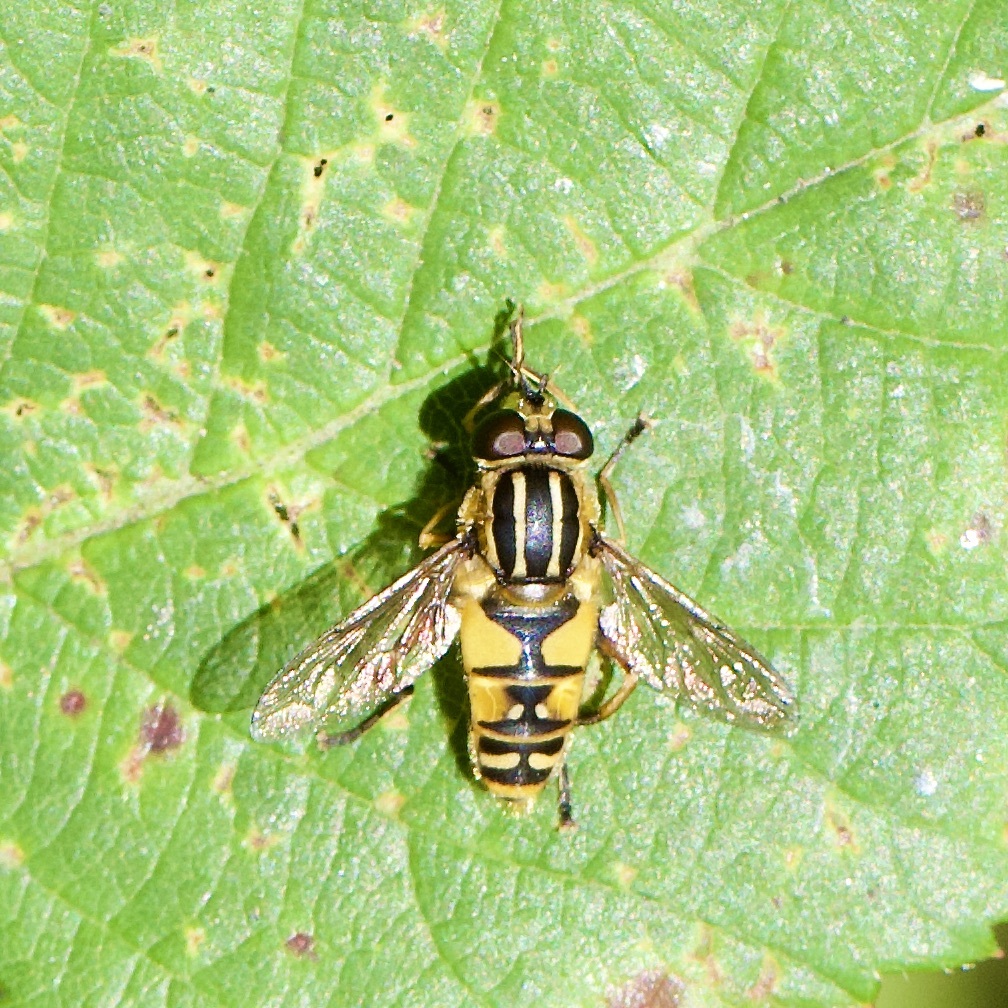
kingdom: Animalia
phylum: Arthropoda
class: Insecta
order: Diptera
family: Syrphidae
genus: Helophilus
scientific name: Helophilus pendulus
